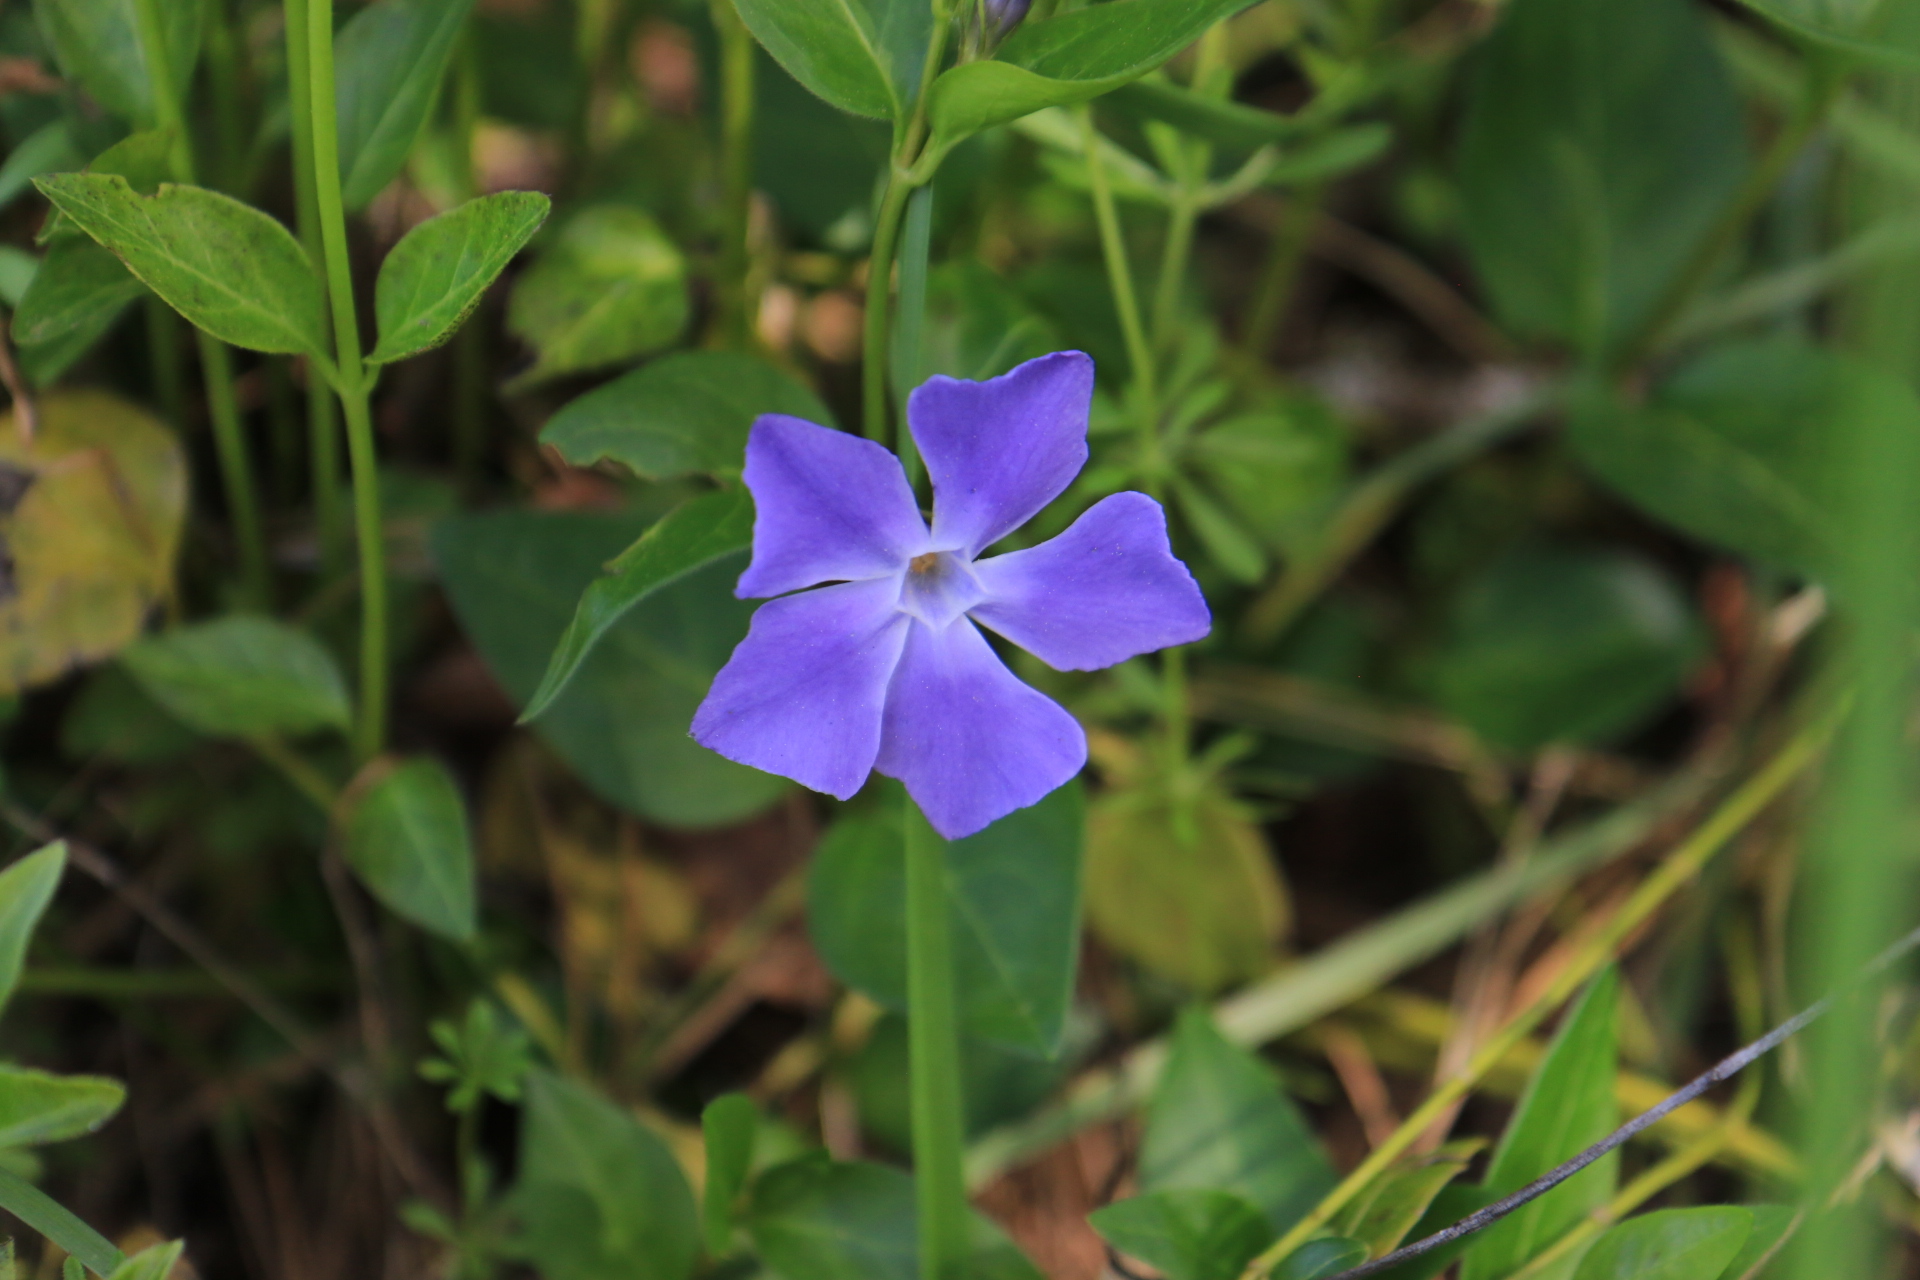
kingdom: Plantae
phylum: Tracheophyta
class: Magnoliopsida
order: Gentianales
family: Apocynaceae
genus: Vinca
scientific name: Vinca major
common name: Greater periwinkle
